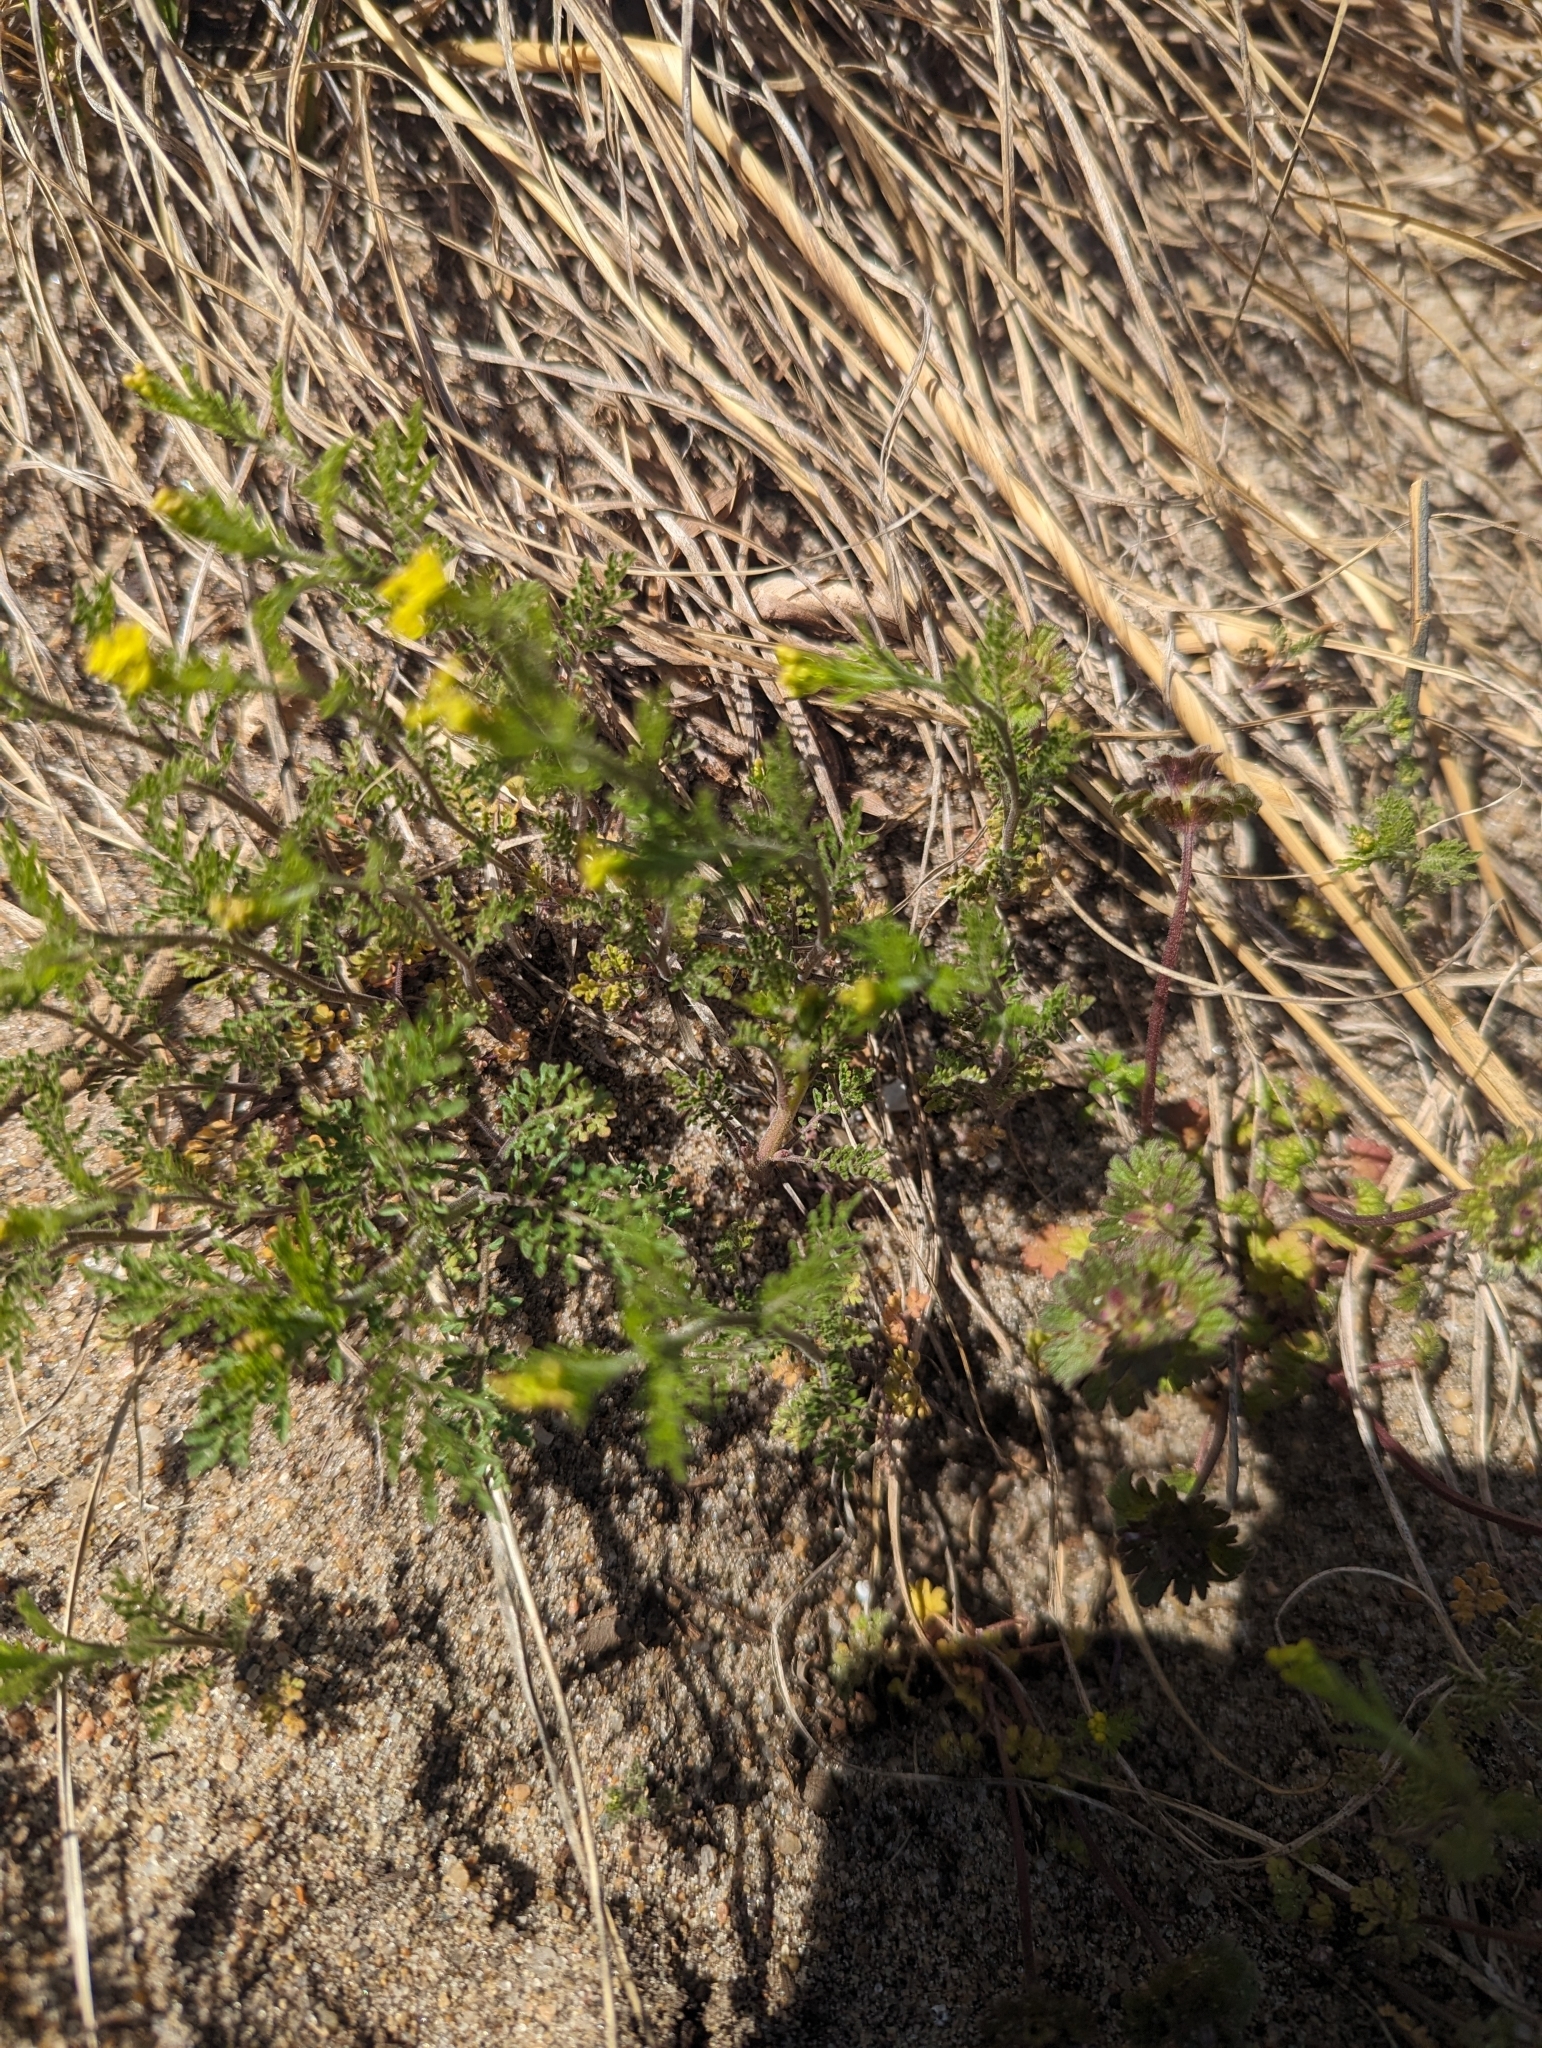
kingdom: Plantae
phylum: Tracheophyta
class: Magnoliopsida
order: Brassicales
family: Brassicaceae
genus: Descurainia
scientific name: Descurainia pinnata
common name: Western tansy mustard
